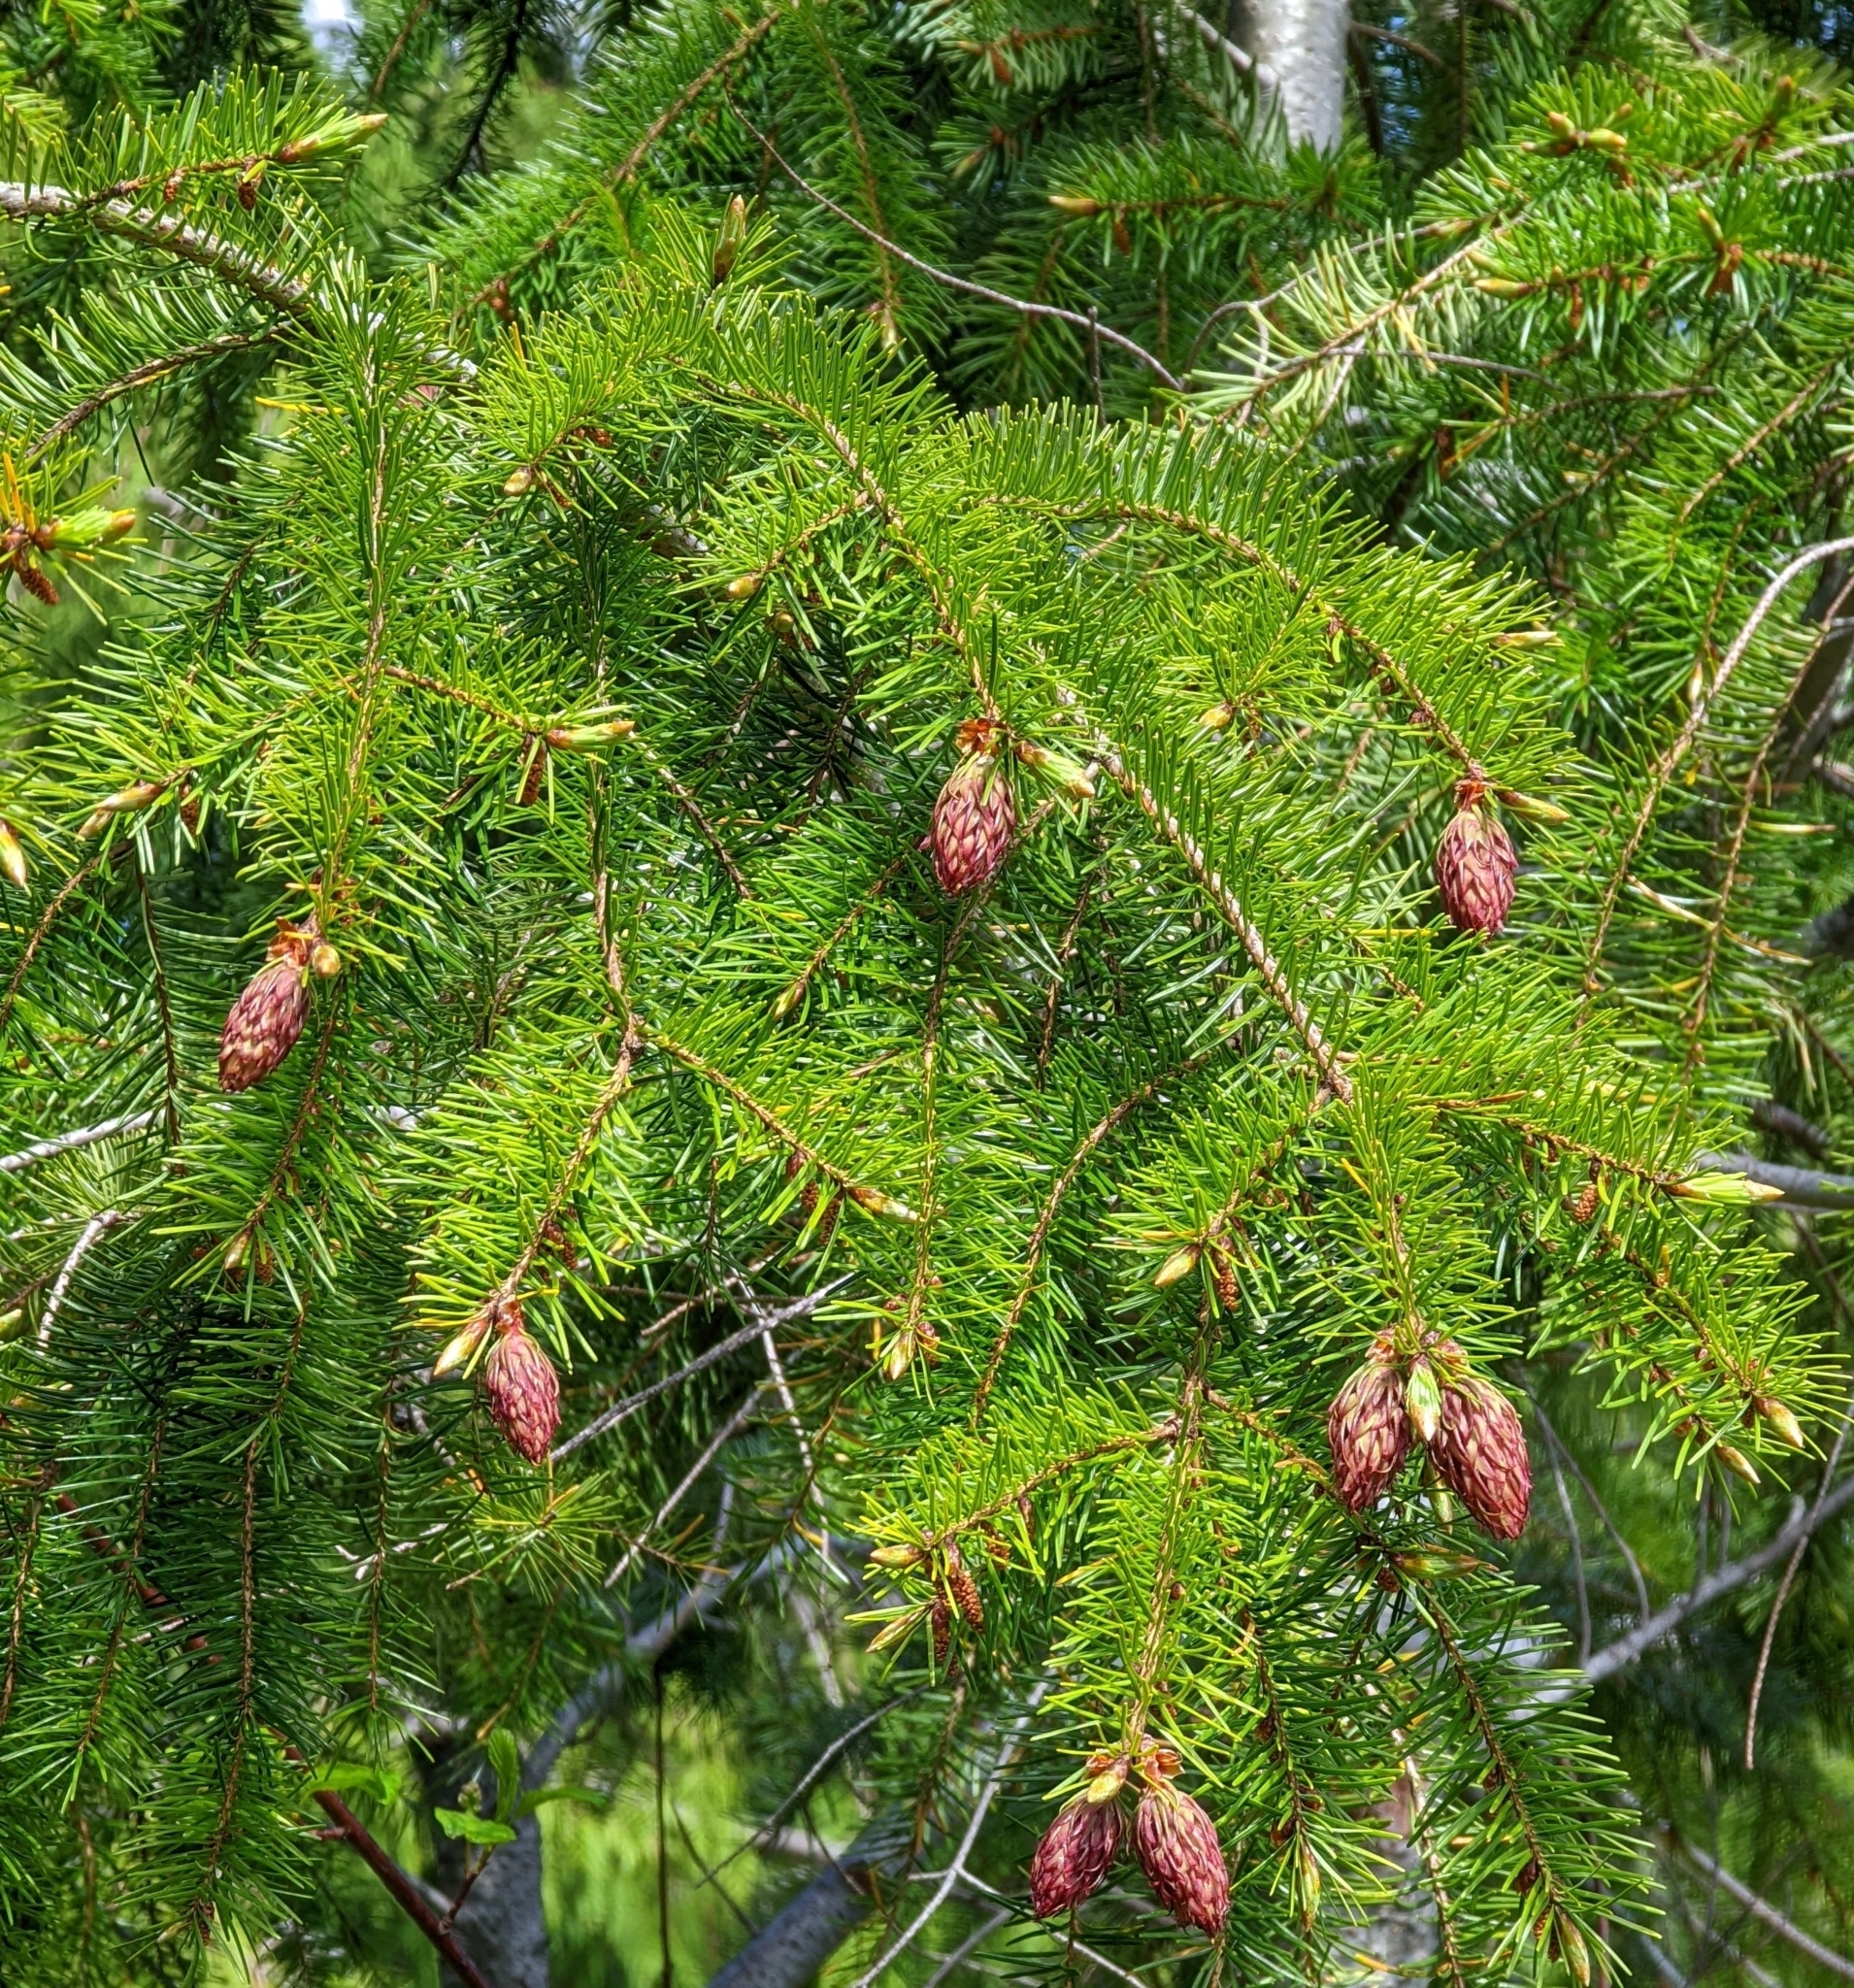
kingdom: Plantae
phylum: Tracheophyta
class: Pinopsida
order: Pinales
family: Pinaceae
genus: Pseudotsuga
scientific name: Pseudotsuga menziesii
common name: Douglas fir
